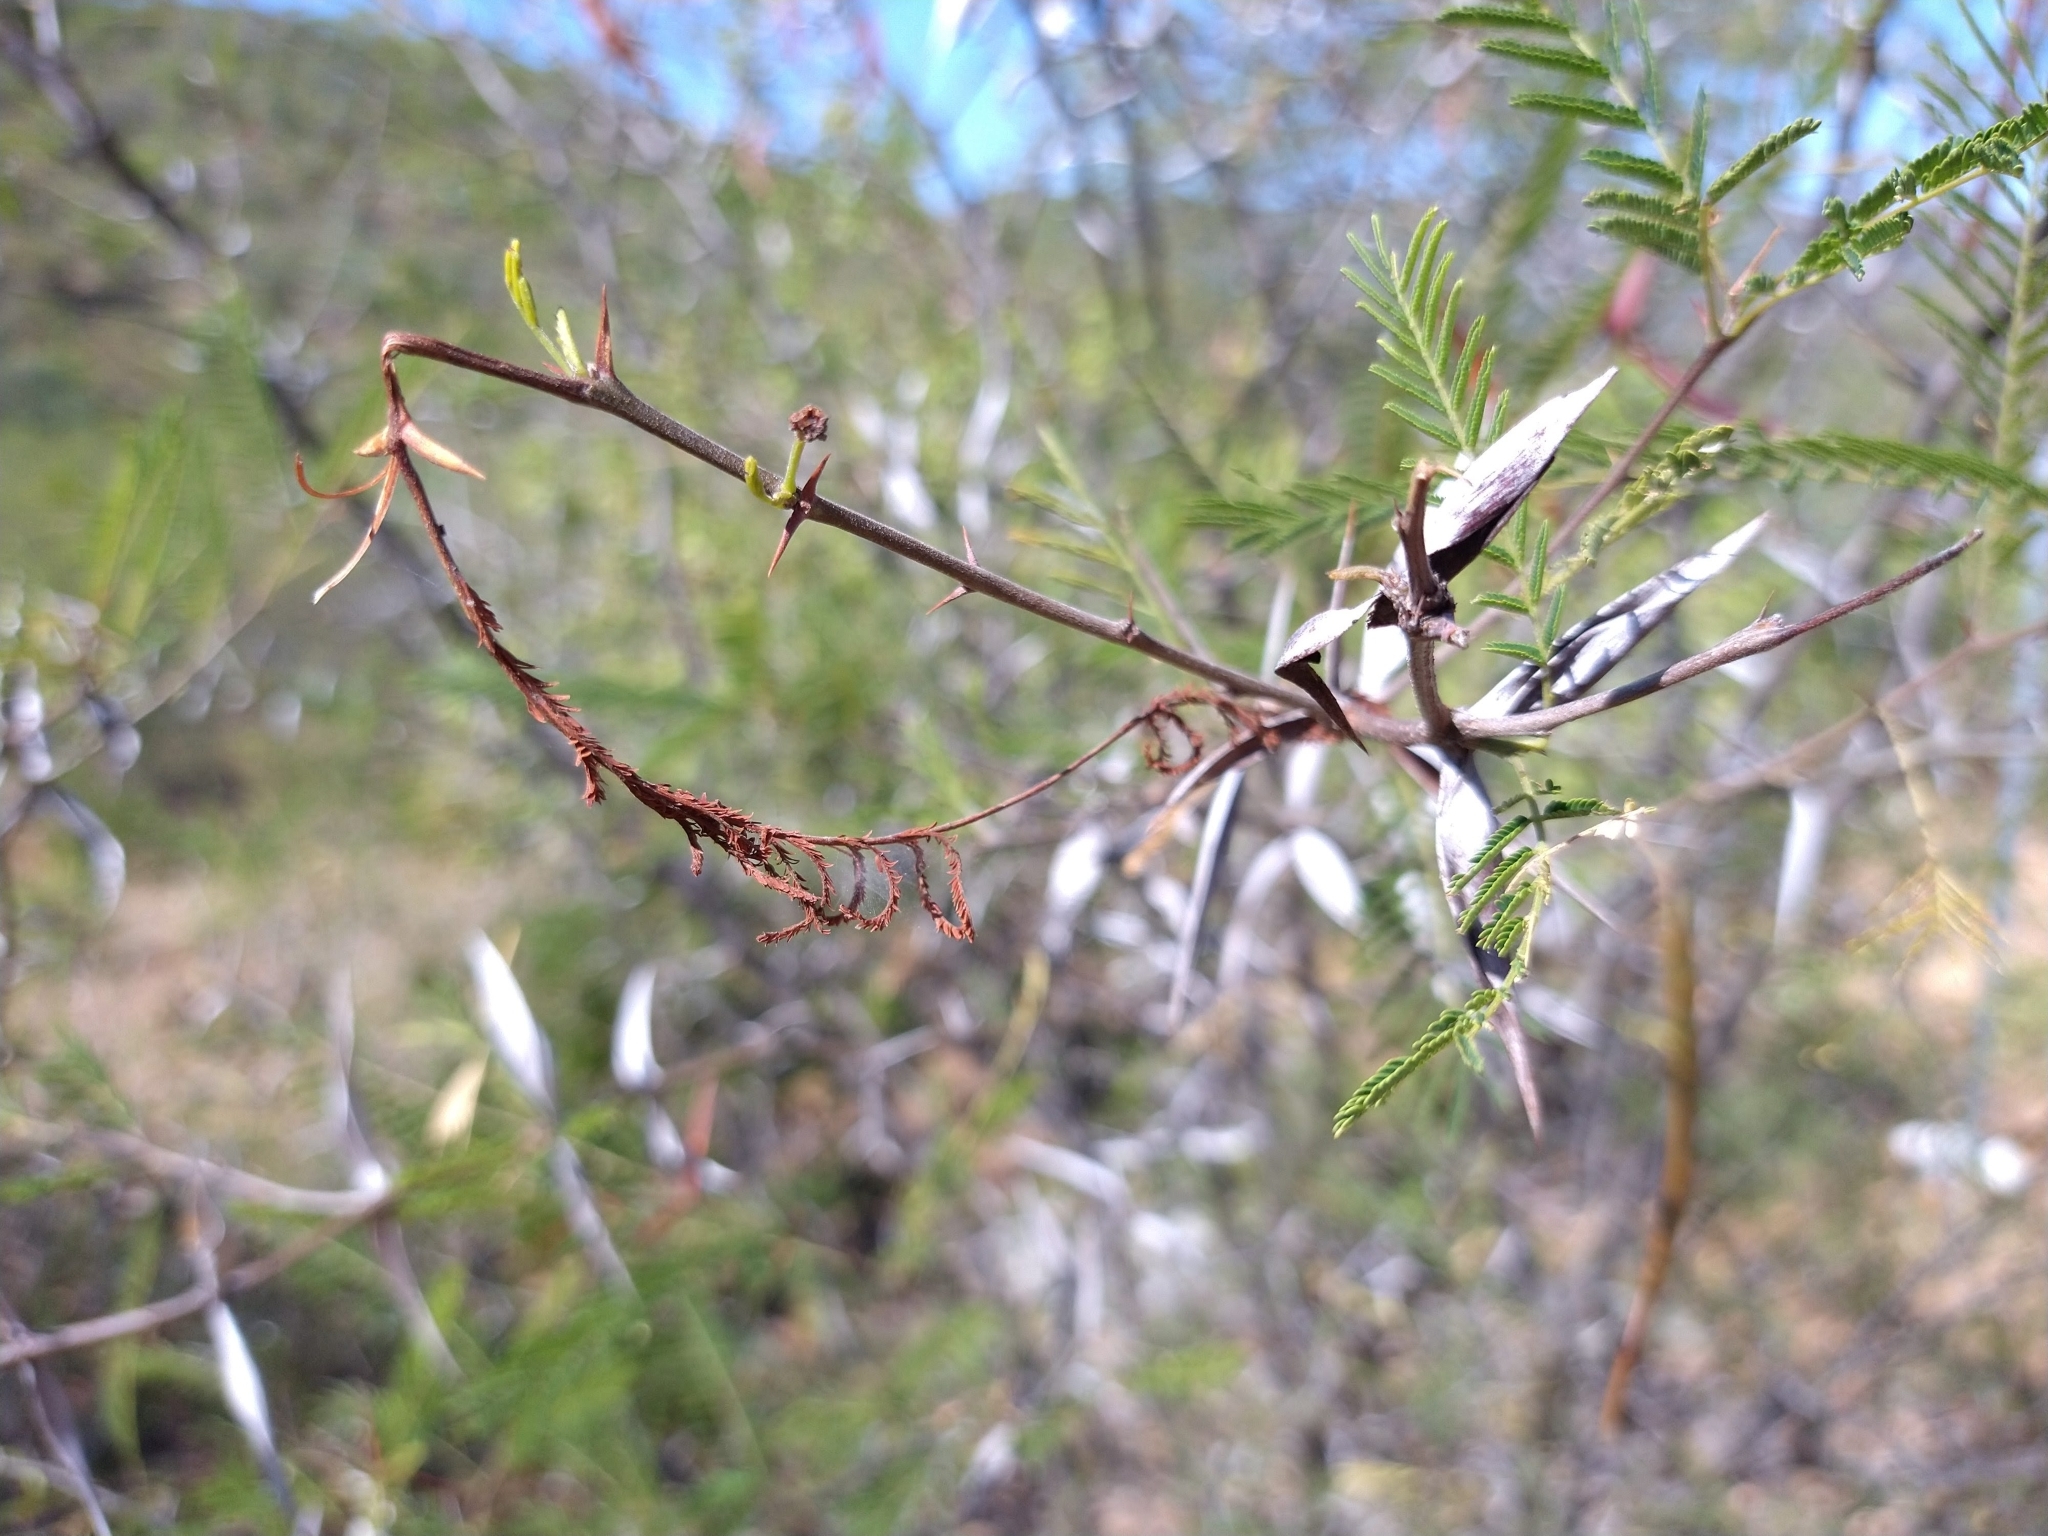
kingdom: Plantae
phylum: Tracheophyta
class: Magnoliopsida
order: Fabales
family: Fabaceae
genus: Vachellia
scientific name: Vachellia campechiana
